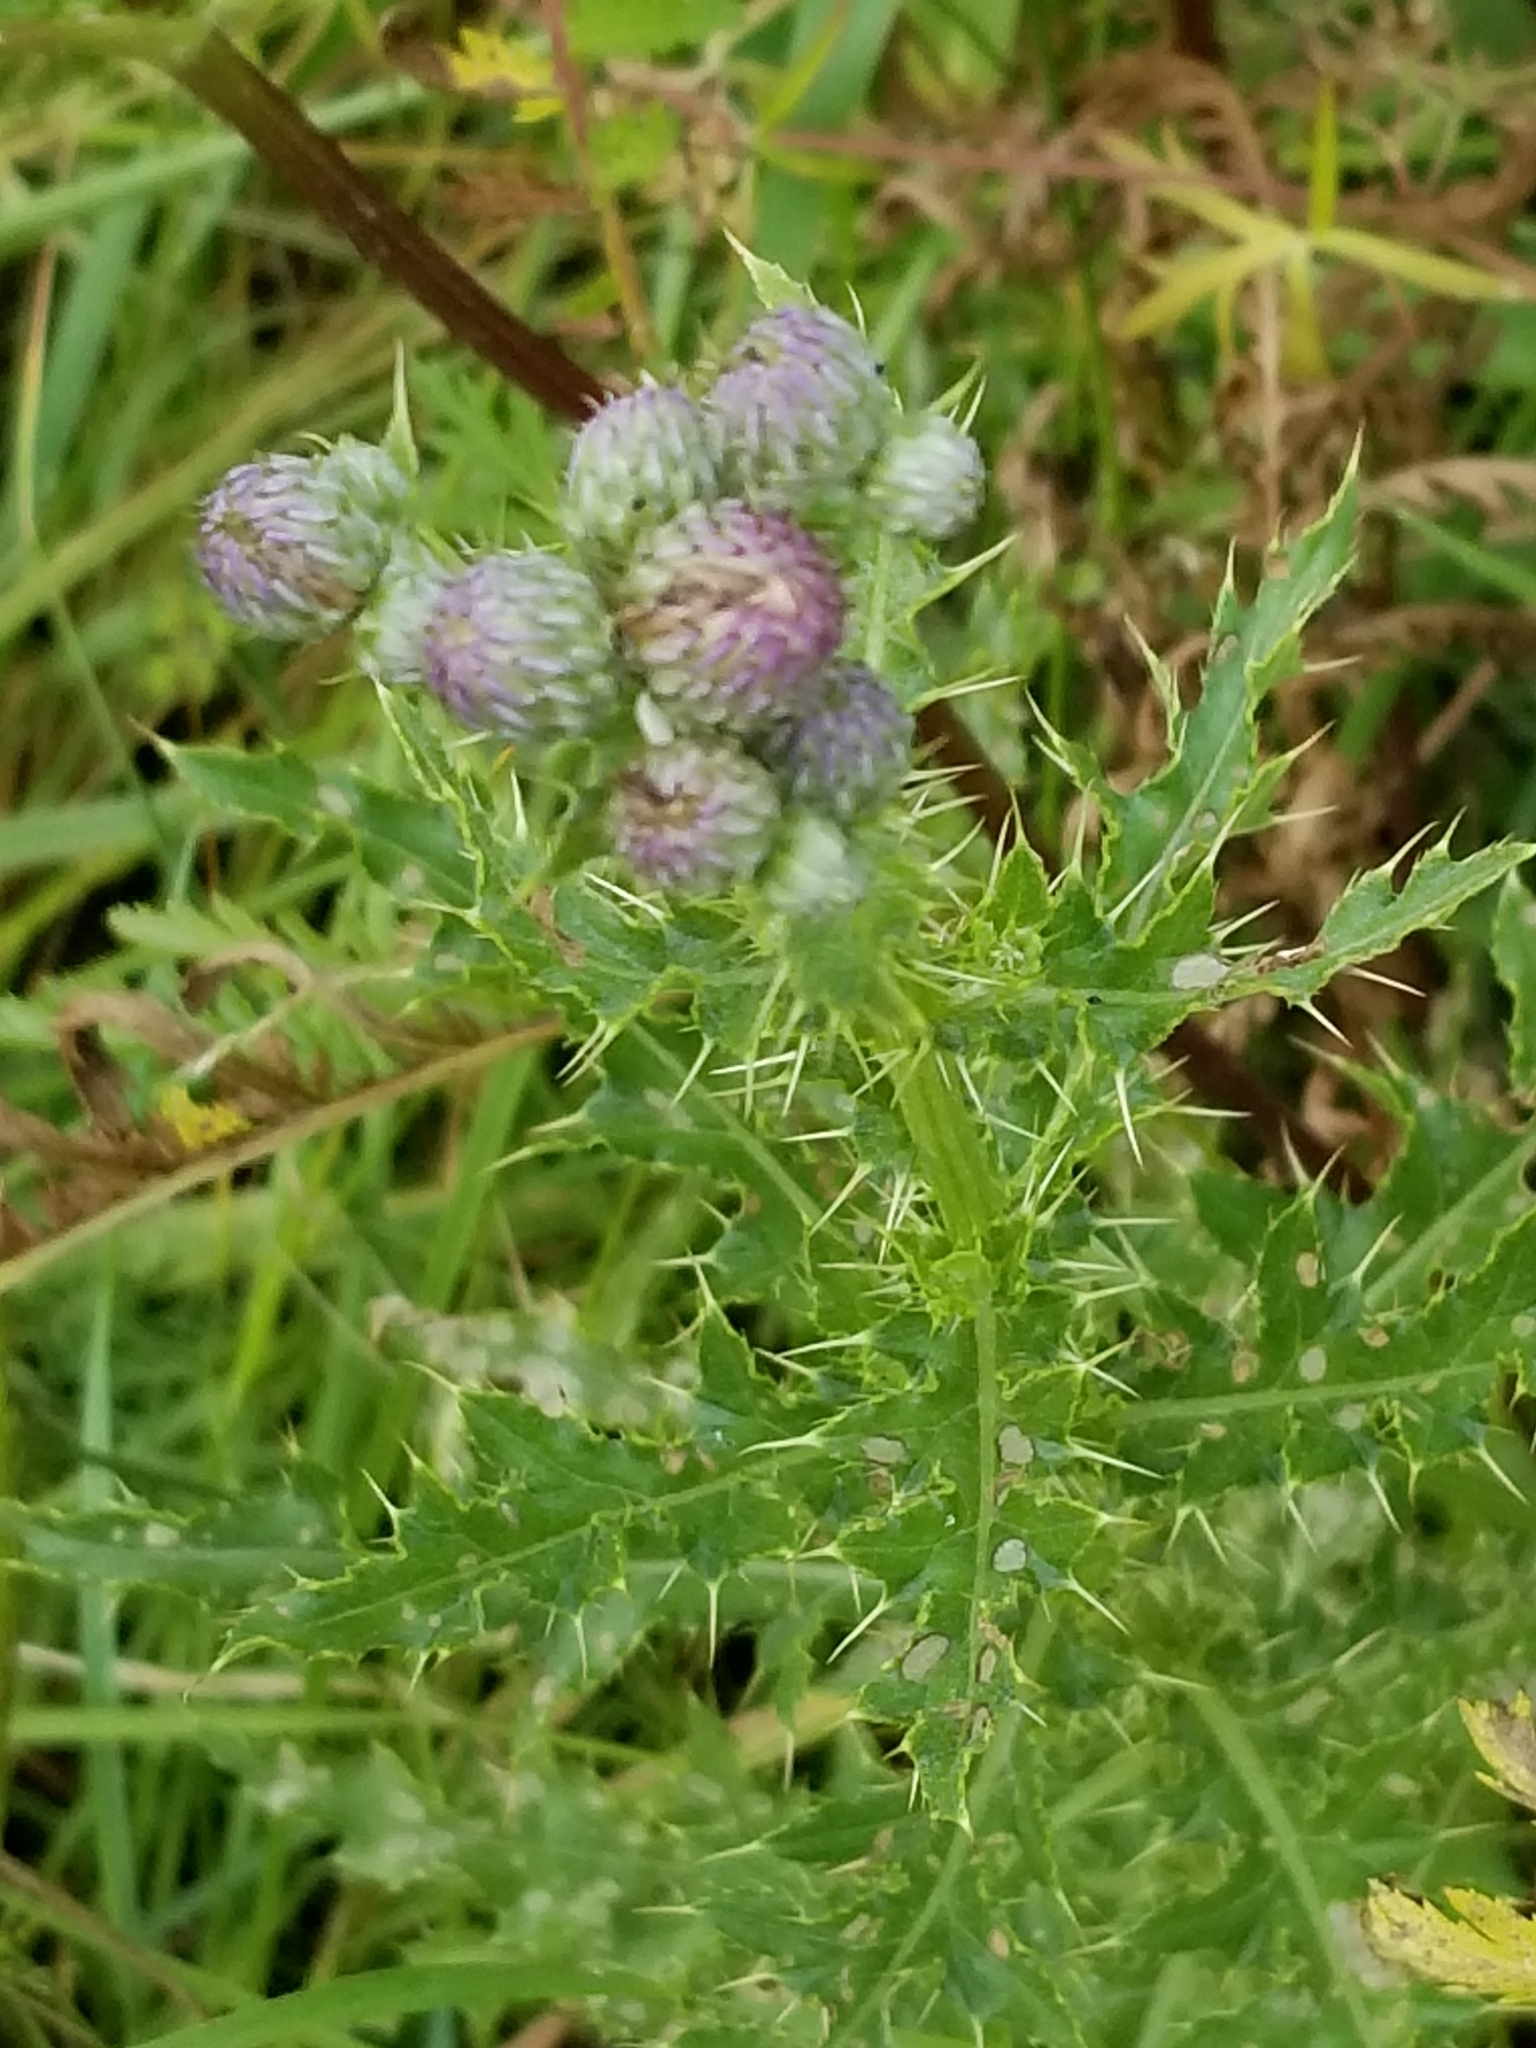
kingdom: Plantae
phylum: Tracheophyta
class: Magnoliopsida
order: Asterales
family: Asteraceae
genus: Cirsium
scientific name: Cirsium arvense
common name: Creeping thistle
